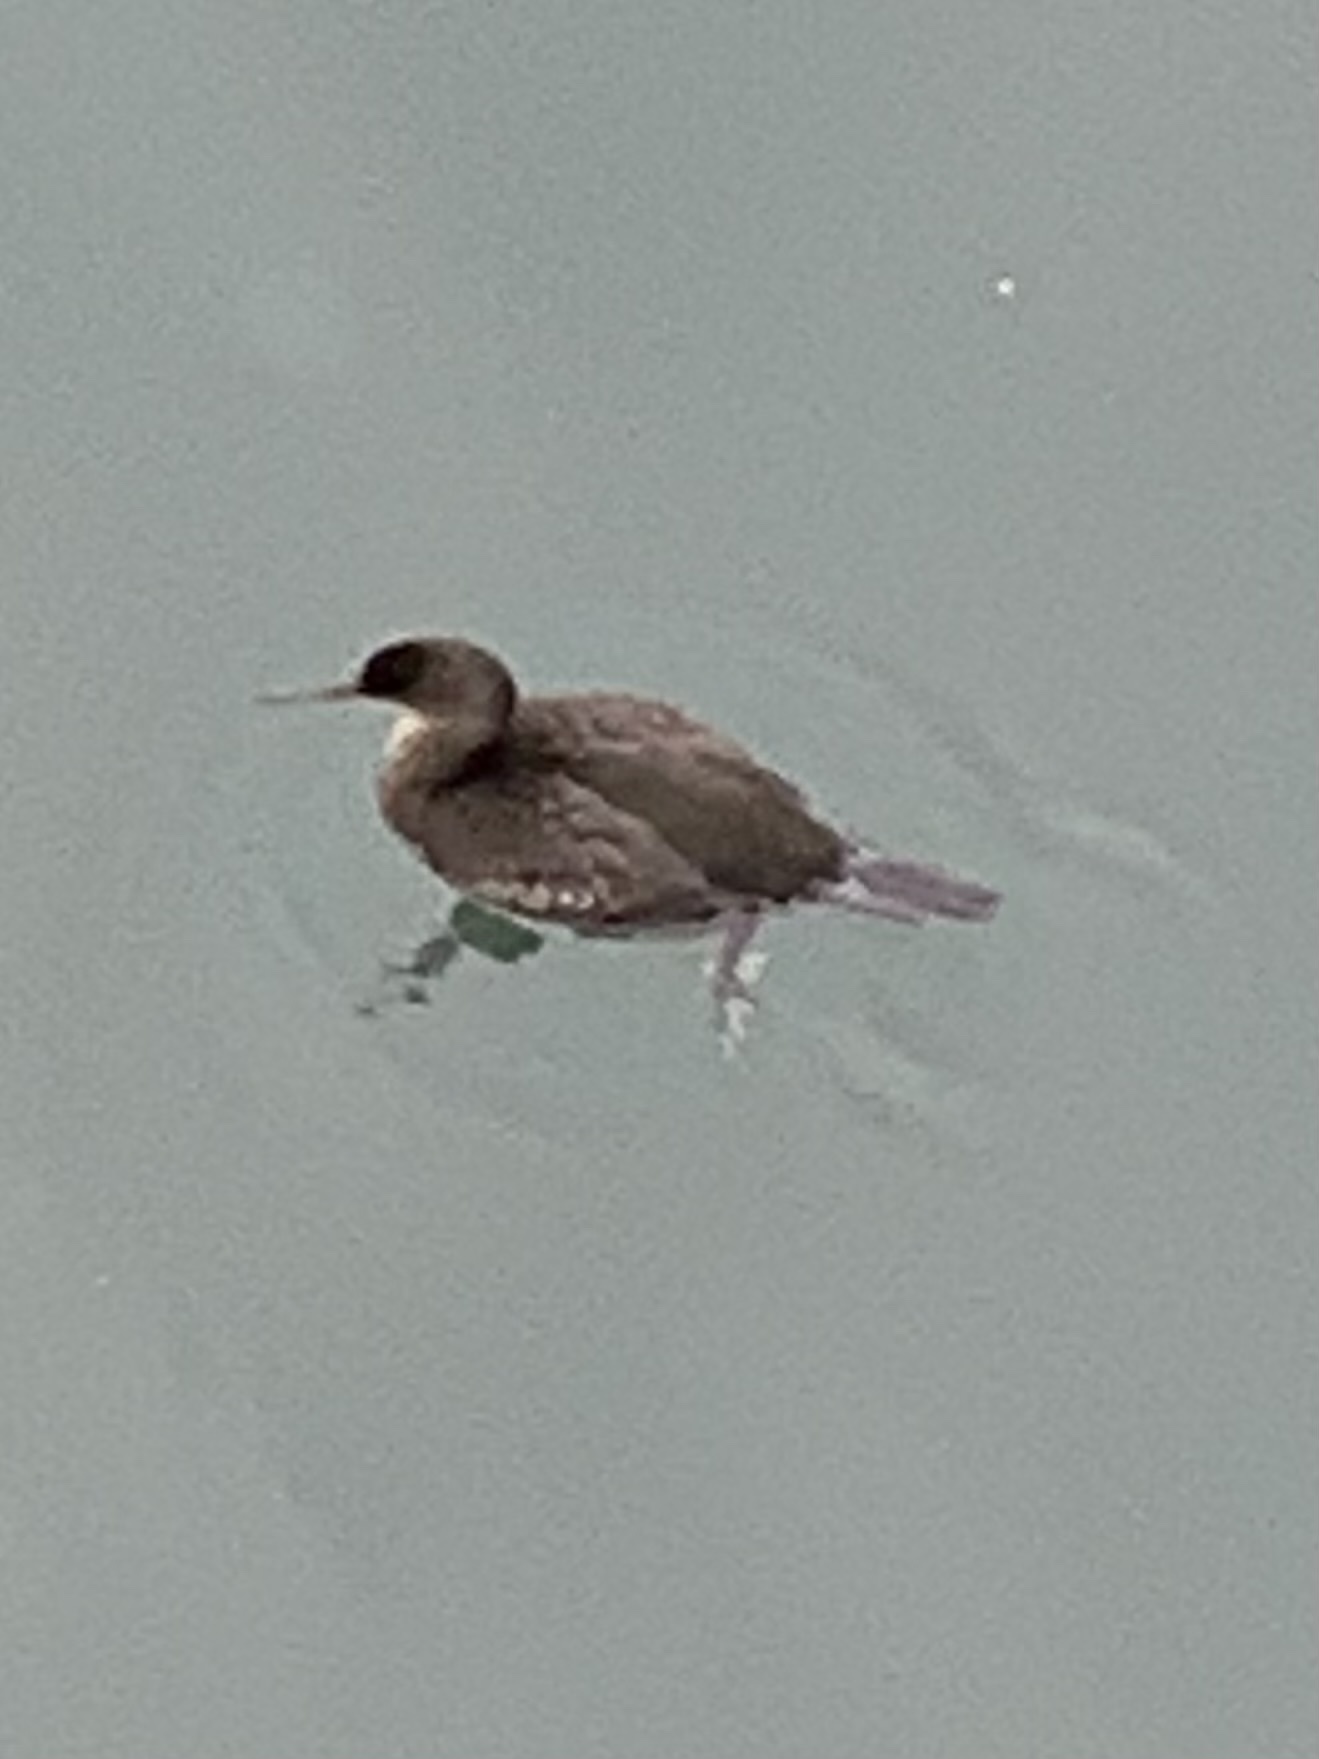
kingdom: Animalia
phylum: Chordata
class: Aves
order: Suliformes
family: Phalacrocoracidae
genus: Microcarbo
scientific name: Microcarbo pygmaeus
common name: Pygmy cormorant
